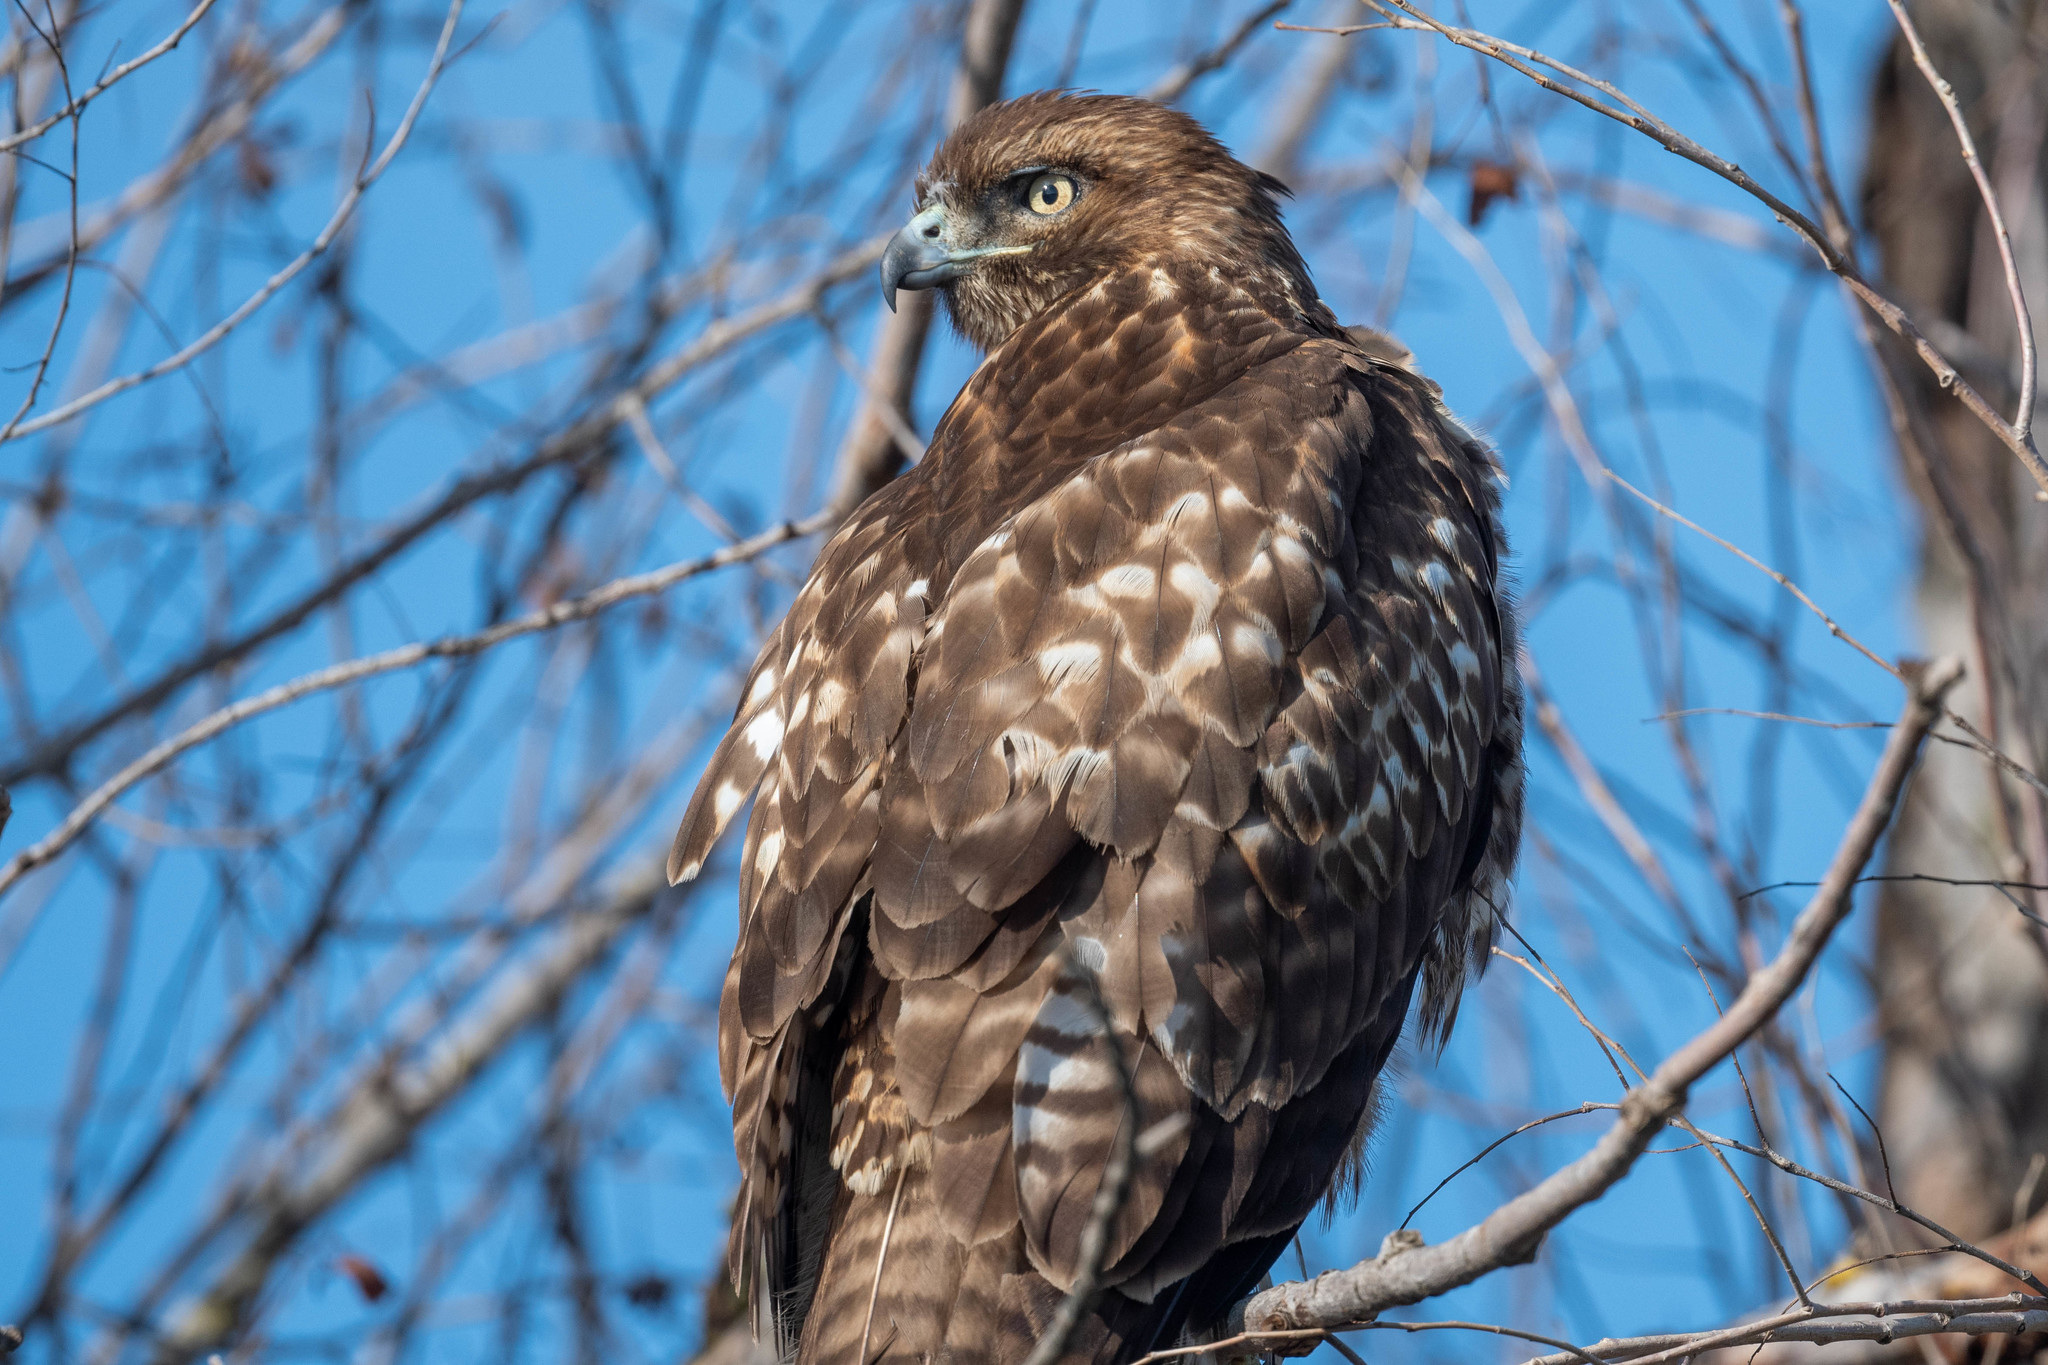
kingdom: Animalia
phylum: Chordata
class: Aves
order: Accipitriformes
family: Accipitridae
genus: Buteo
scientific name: Buteo jamaicensis
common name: Red-tailed hawk
